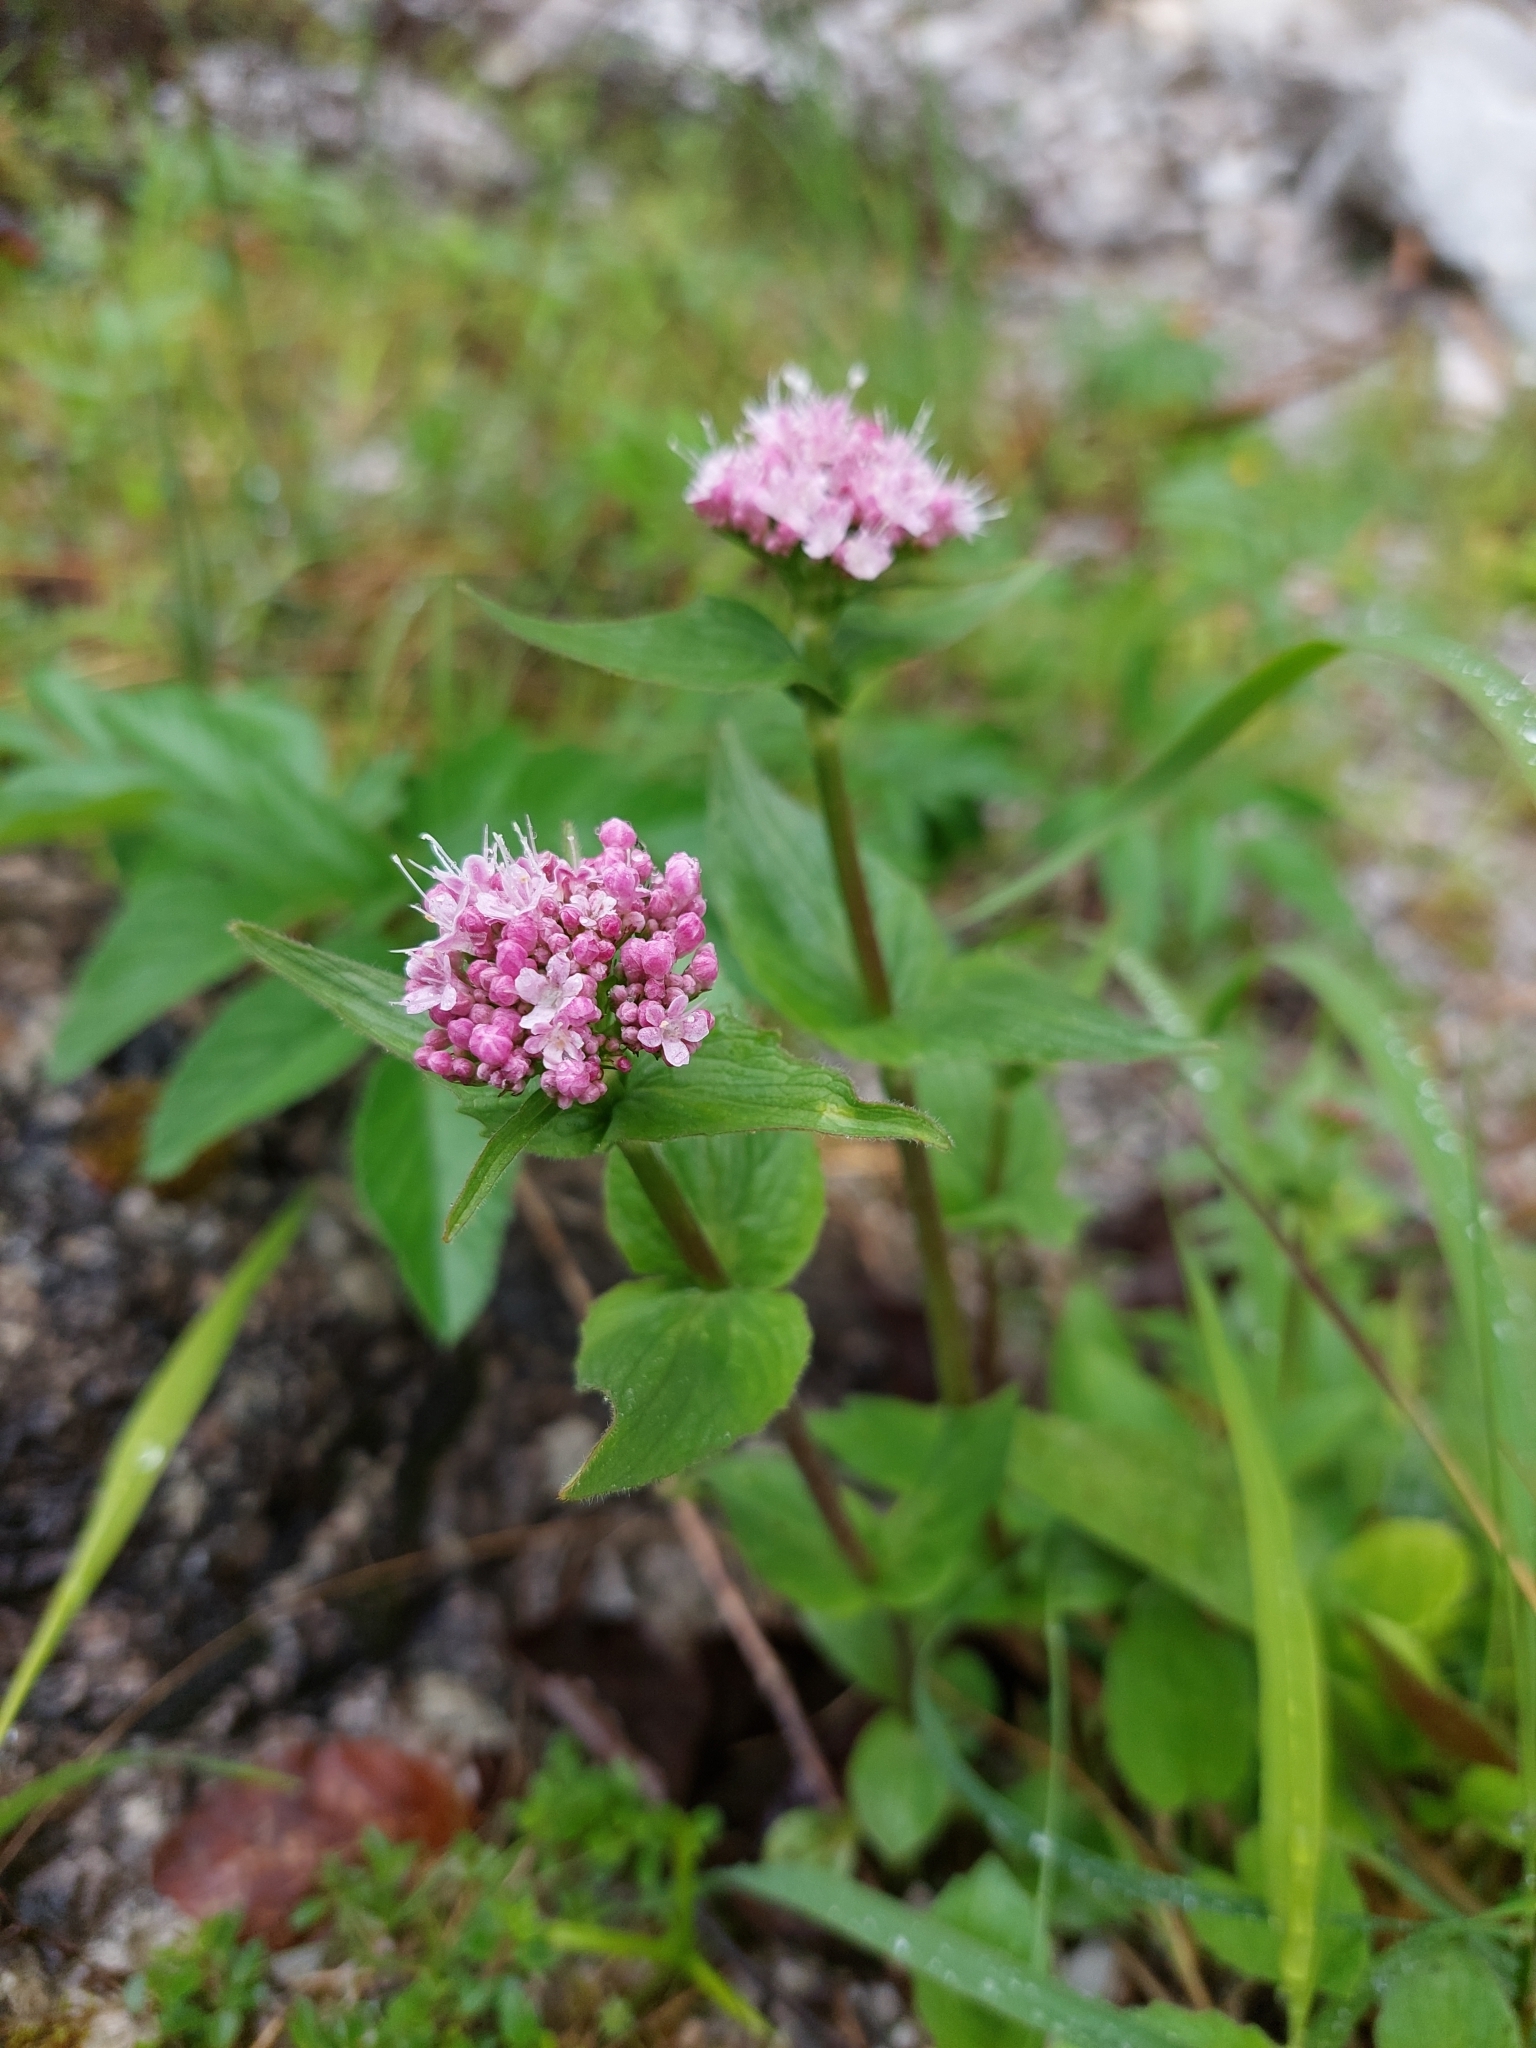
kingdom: Plantae
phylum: Tracheophyta
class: Magnoliopsida
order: Dipsacales
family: Caprifoliaceae
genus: Valeriana
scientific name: Valeriana montana
